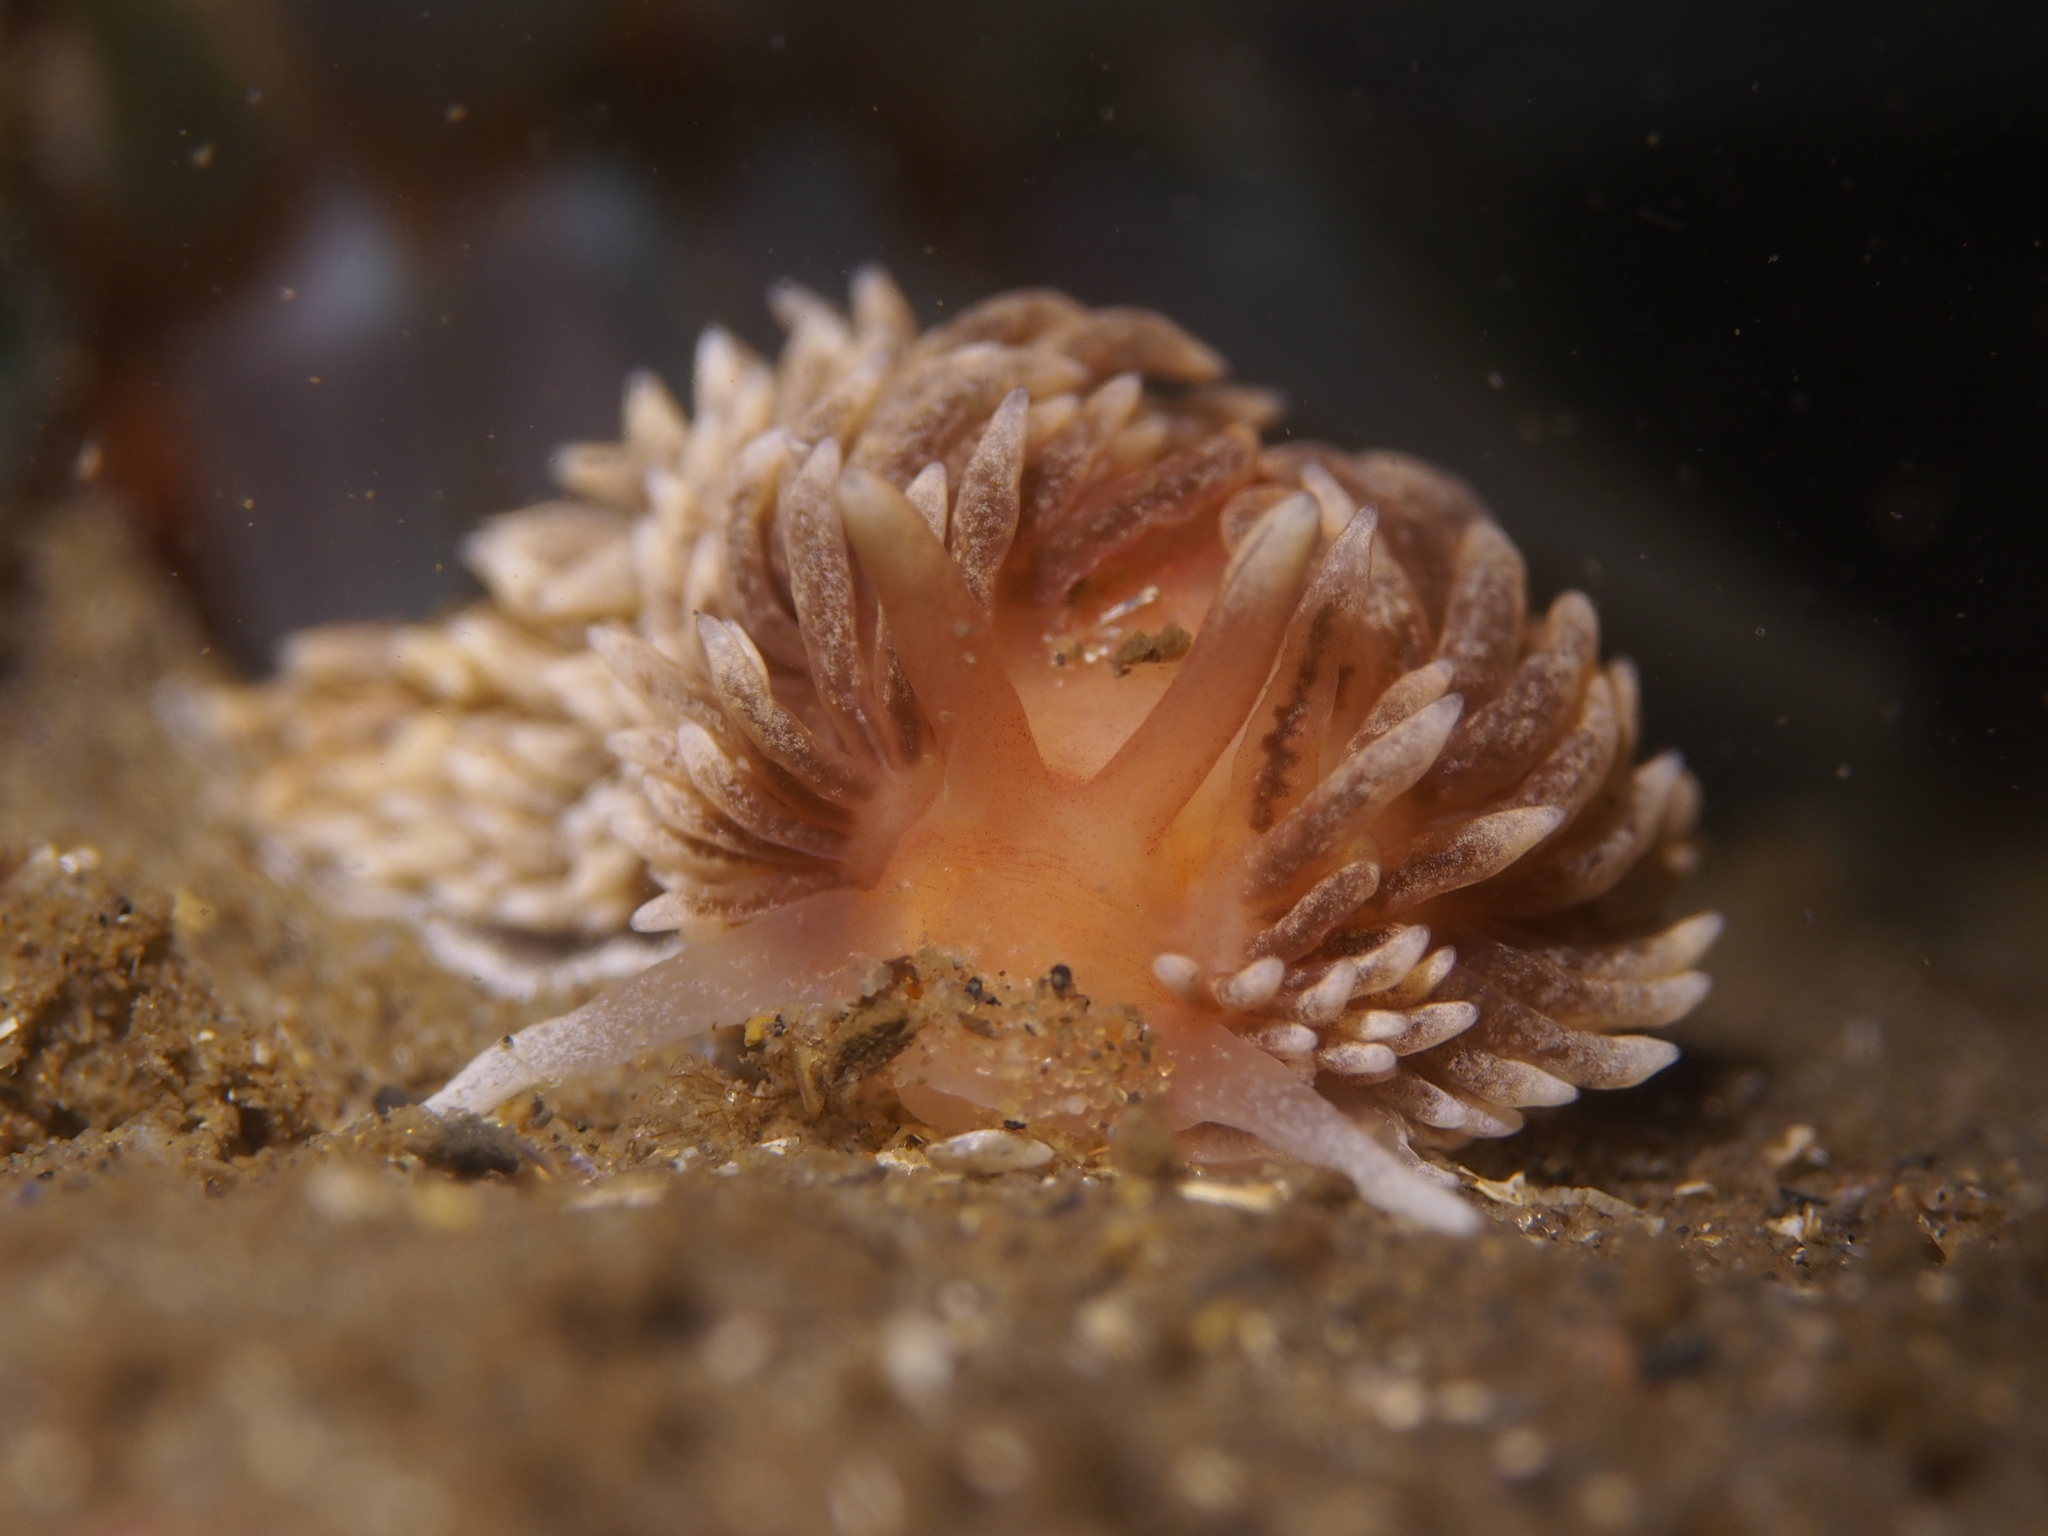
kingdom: Animalia
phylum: Mollusca
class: Gastropoda
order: Nudibranchia
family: Aeolidiidae
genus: Aeolidiella
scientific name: Aeolidiella glauca
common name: Orange-brown aeolid
